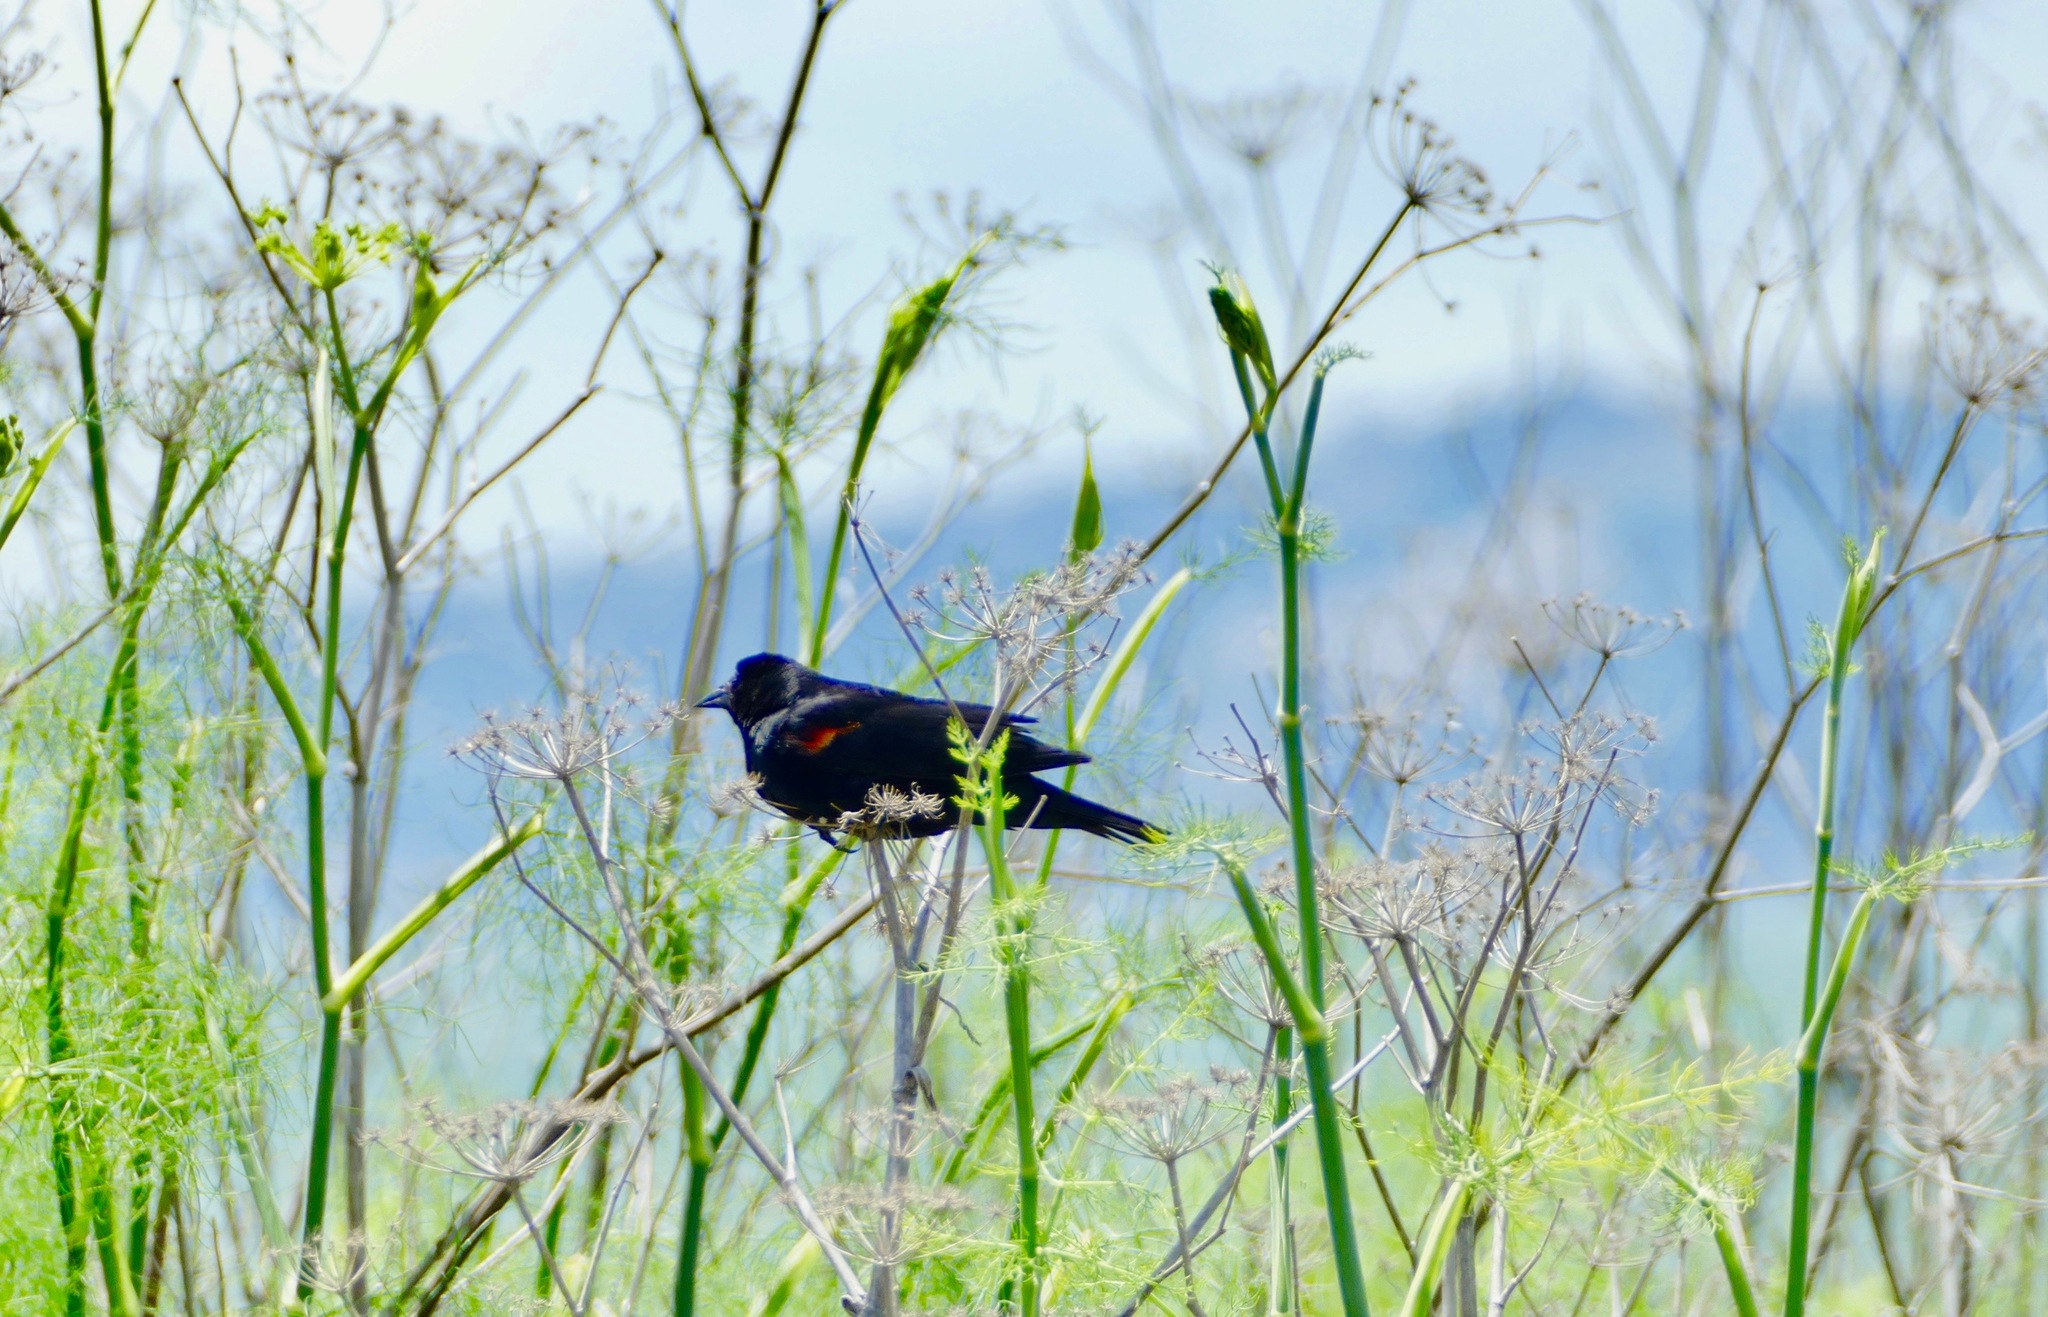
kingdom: Animalia
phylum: Chordata
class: Aves
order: Passeriformes
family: Icteridae
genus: Agelaius
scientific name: Agelaius phoeniceus
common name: Red-winged blackbird
